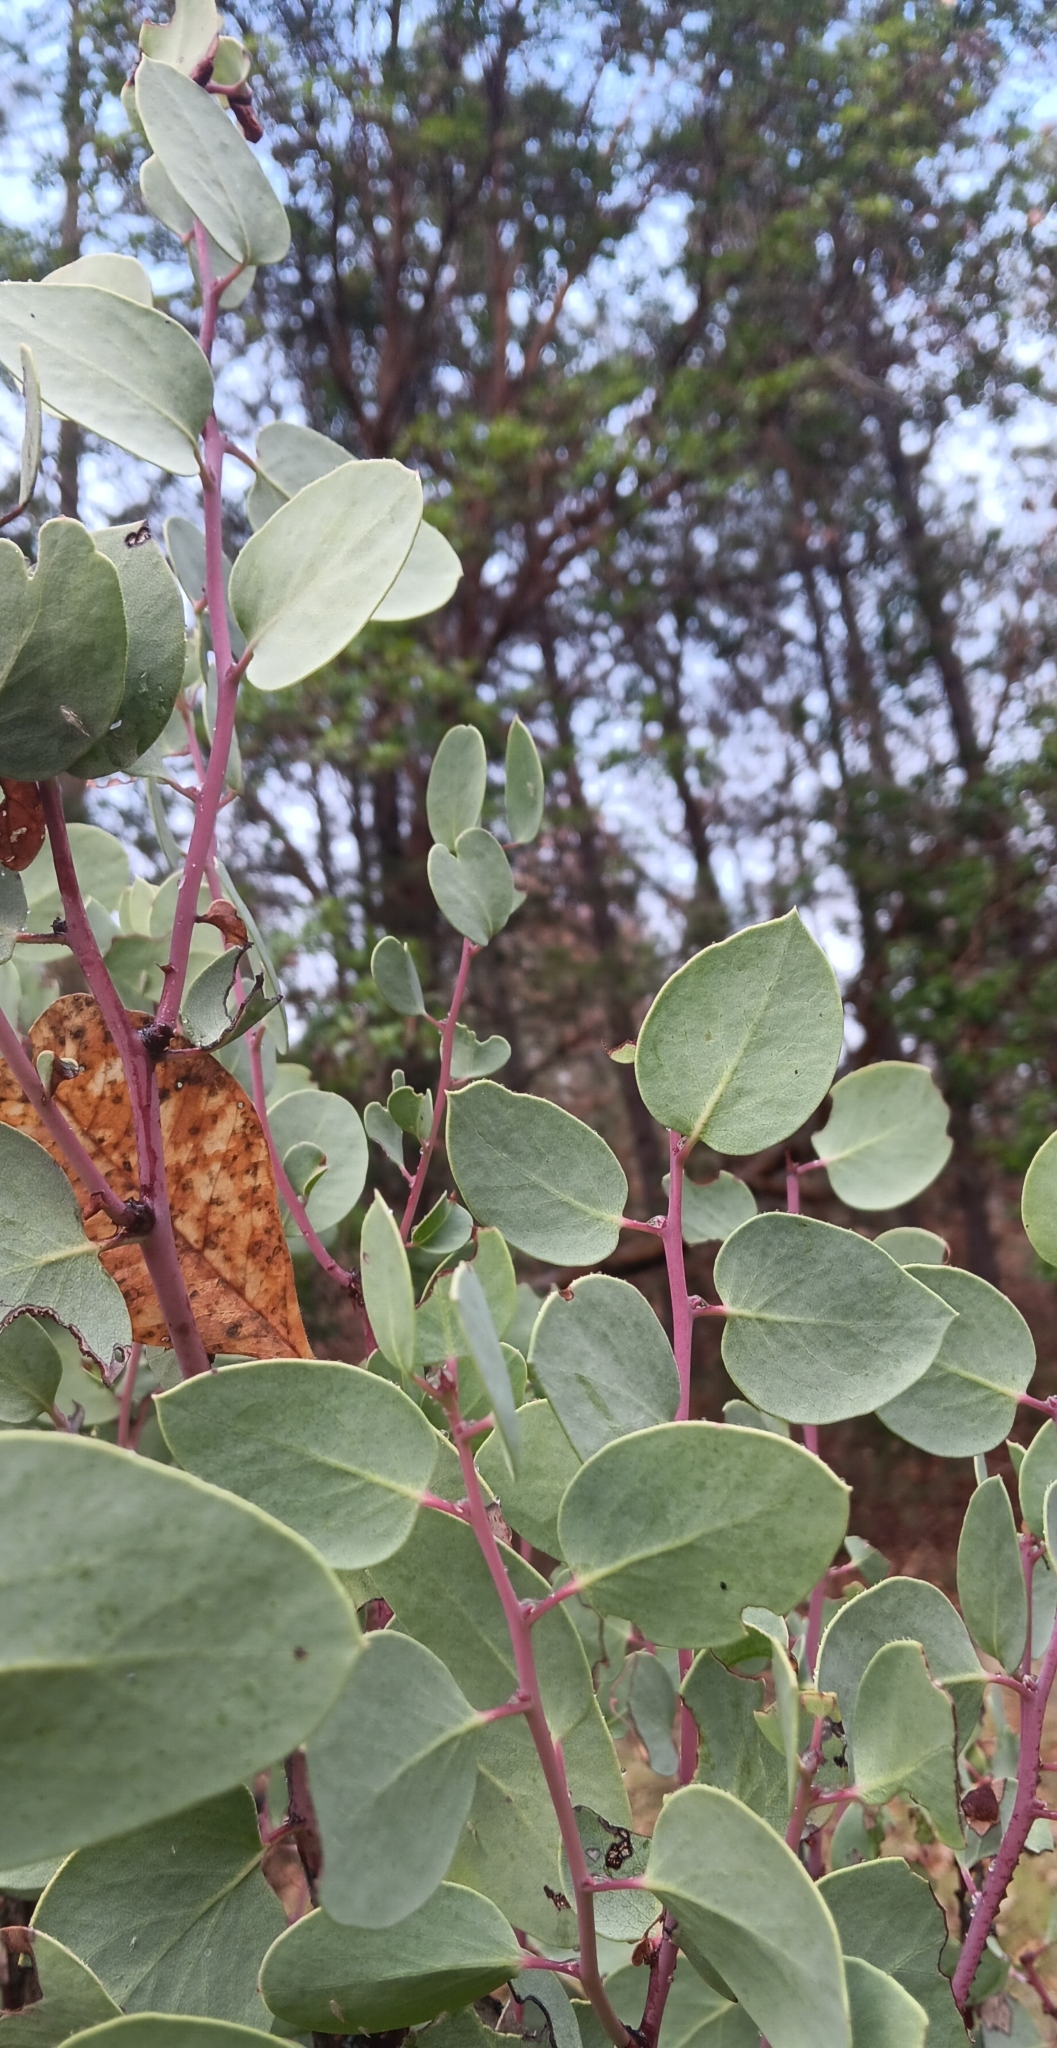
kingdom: Plantae
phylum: Tracheophyta
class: Magnoliopsida
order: Ericales
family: Ericaceae
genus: Arctostaphylos
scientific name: Arctostaphylos viscida
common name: White-leaf manzanita
